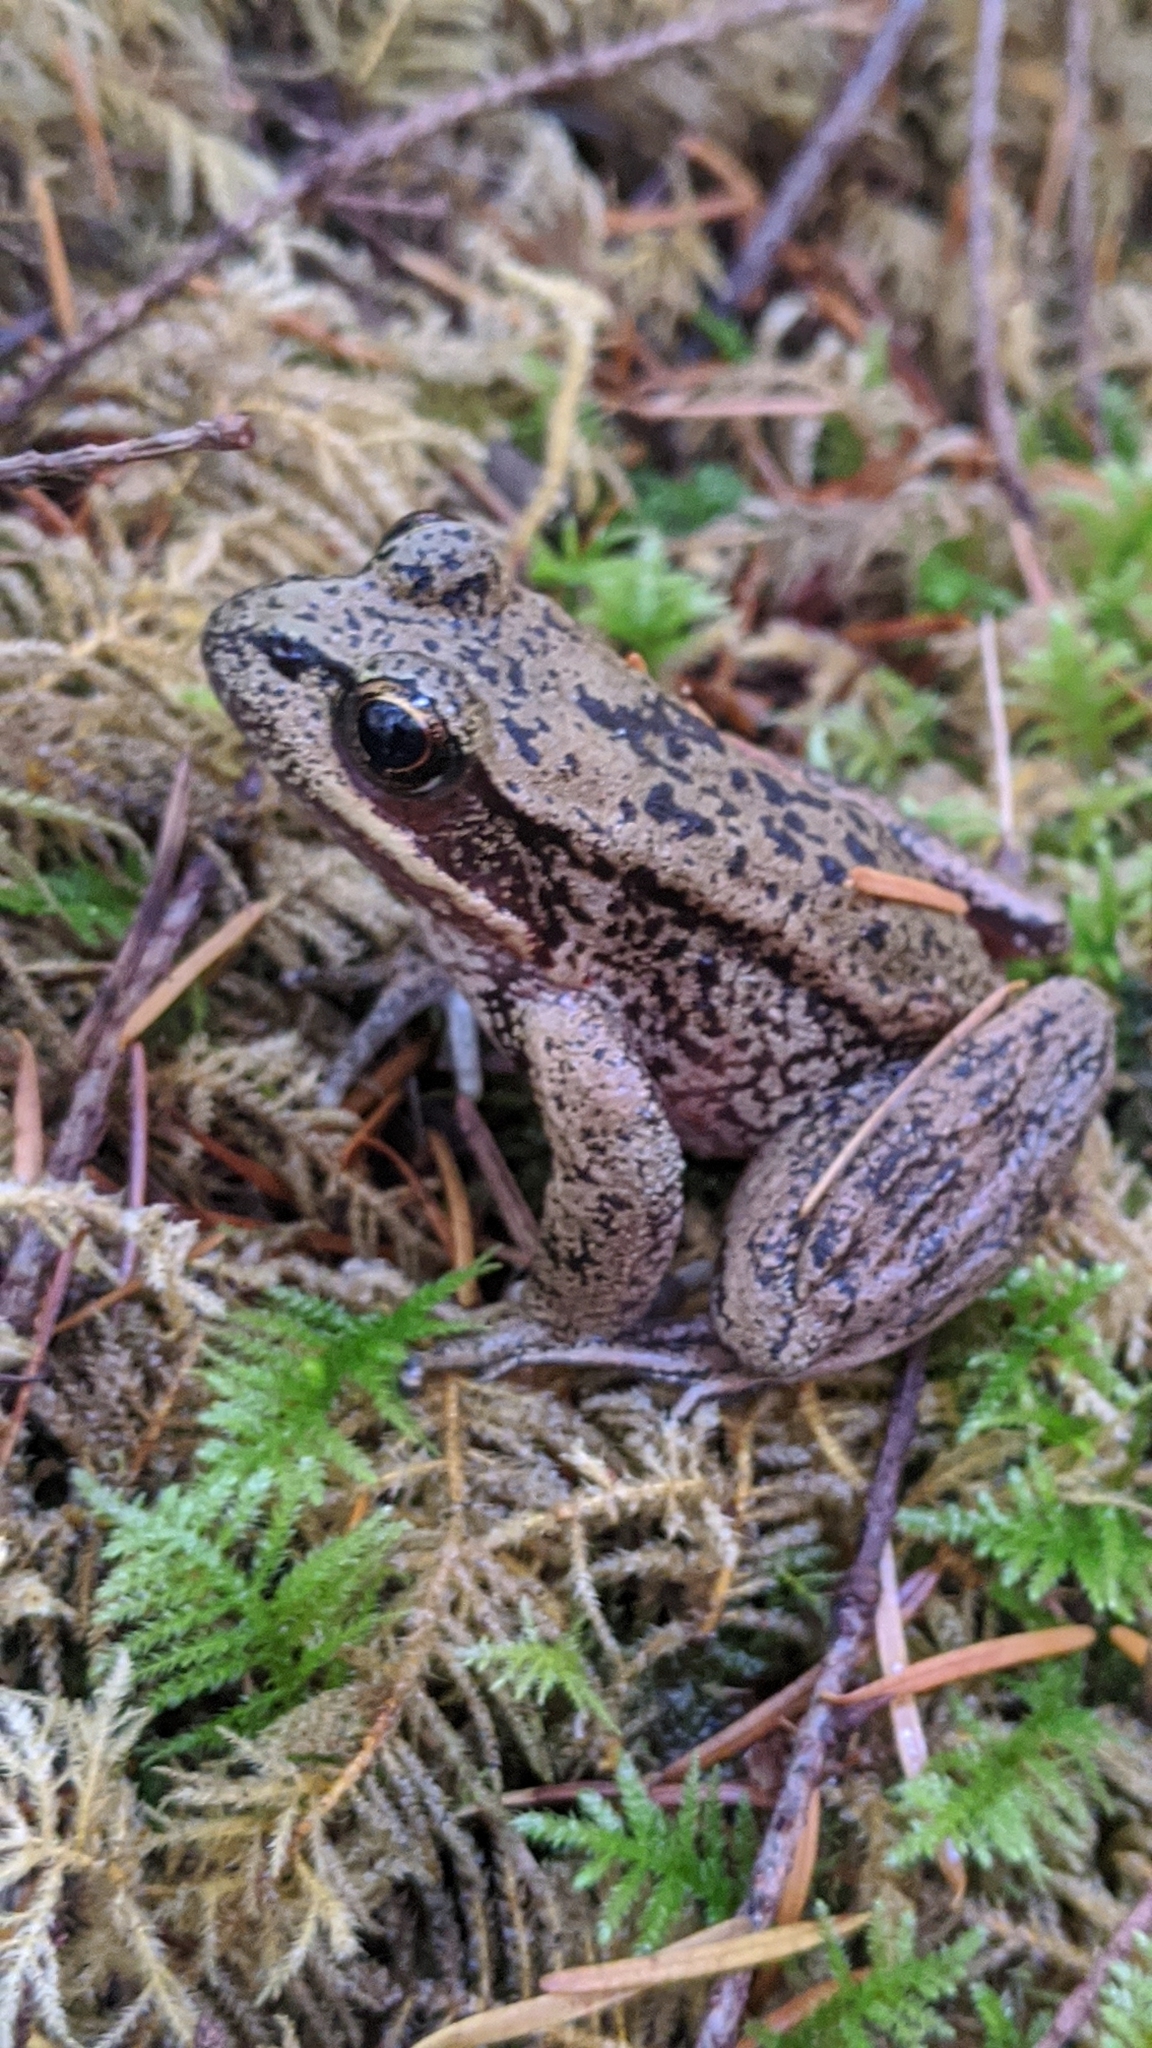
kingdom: Animalia
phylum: Chordata
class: Amphibia
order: Anura
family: Ranidae
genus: Rana
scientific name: Rana aurora
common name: Red-legged frog
